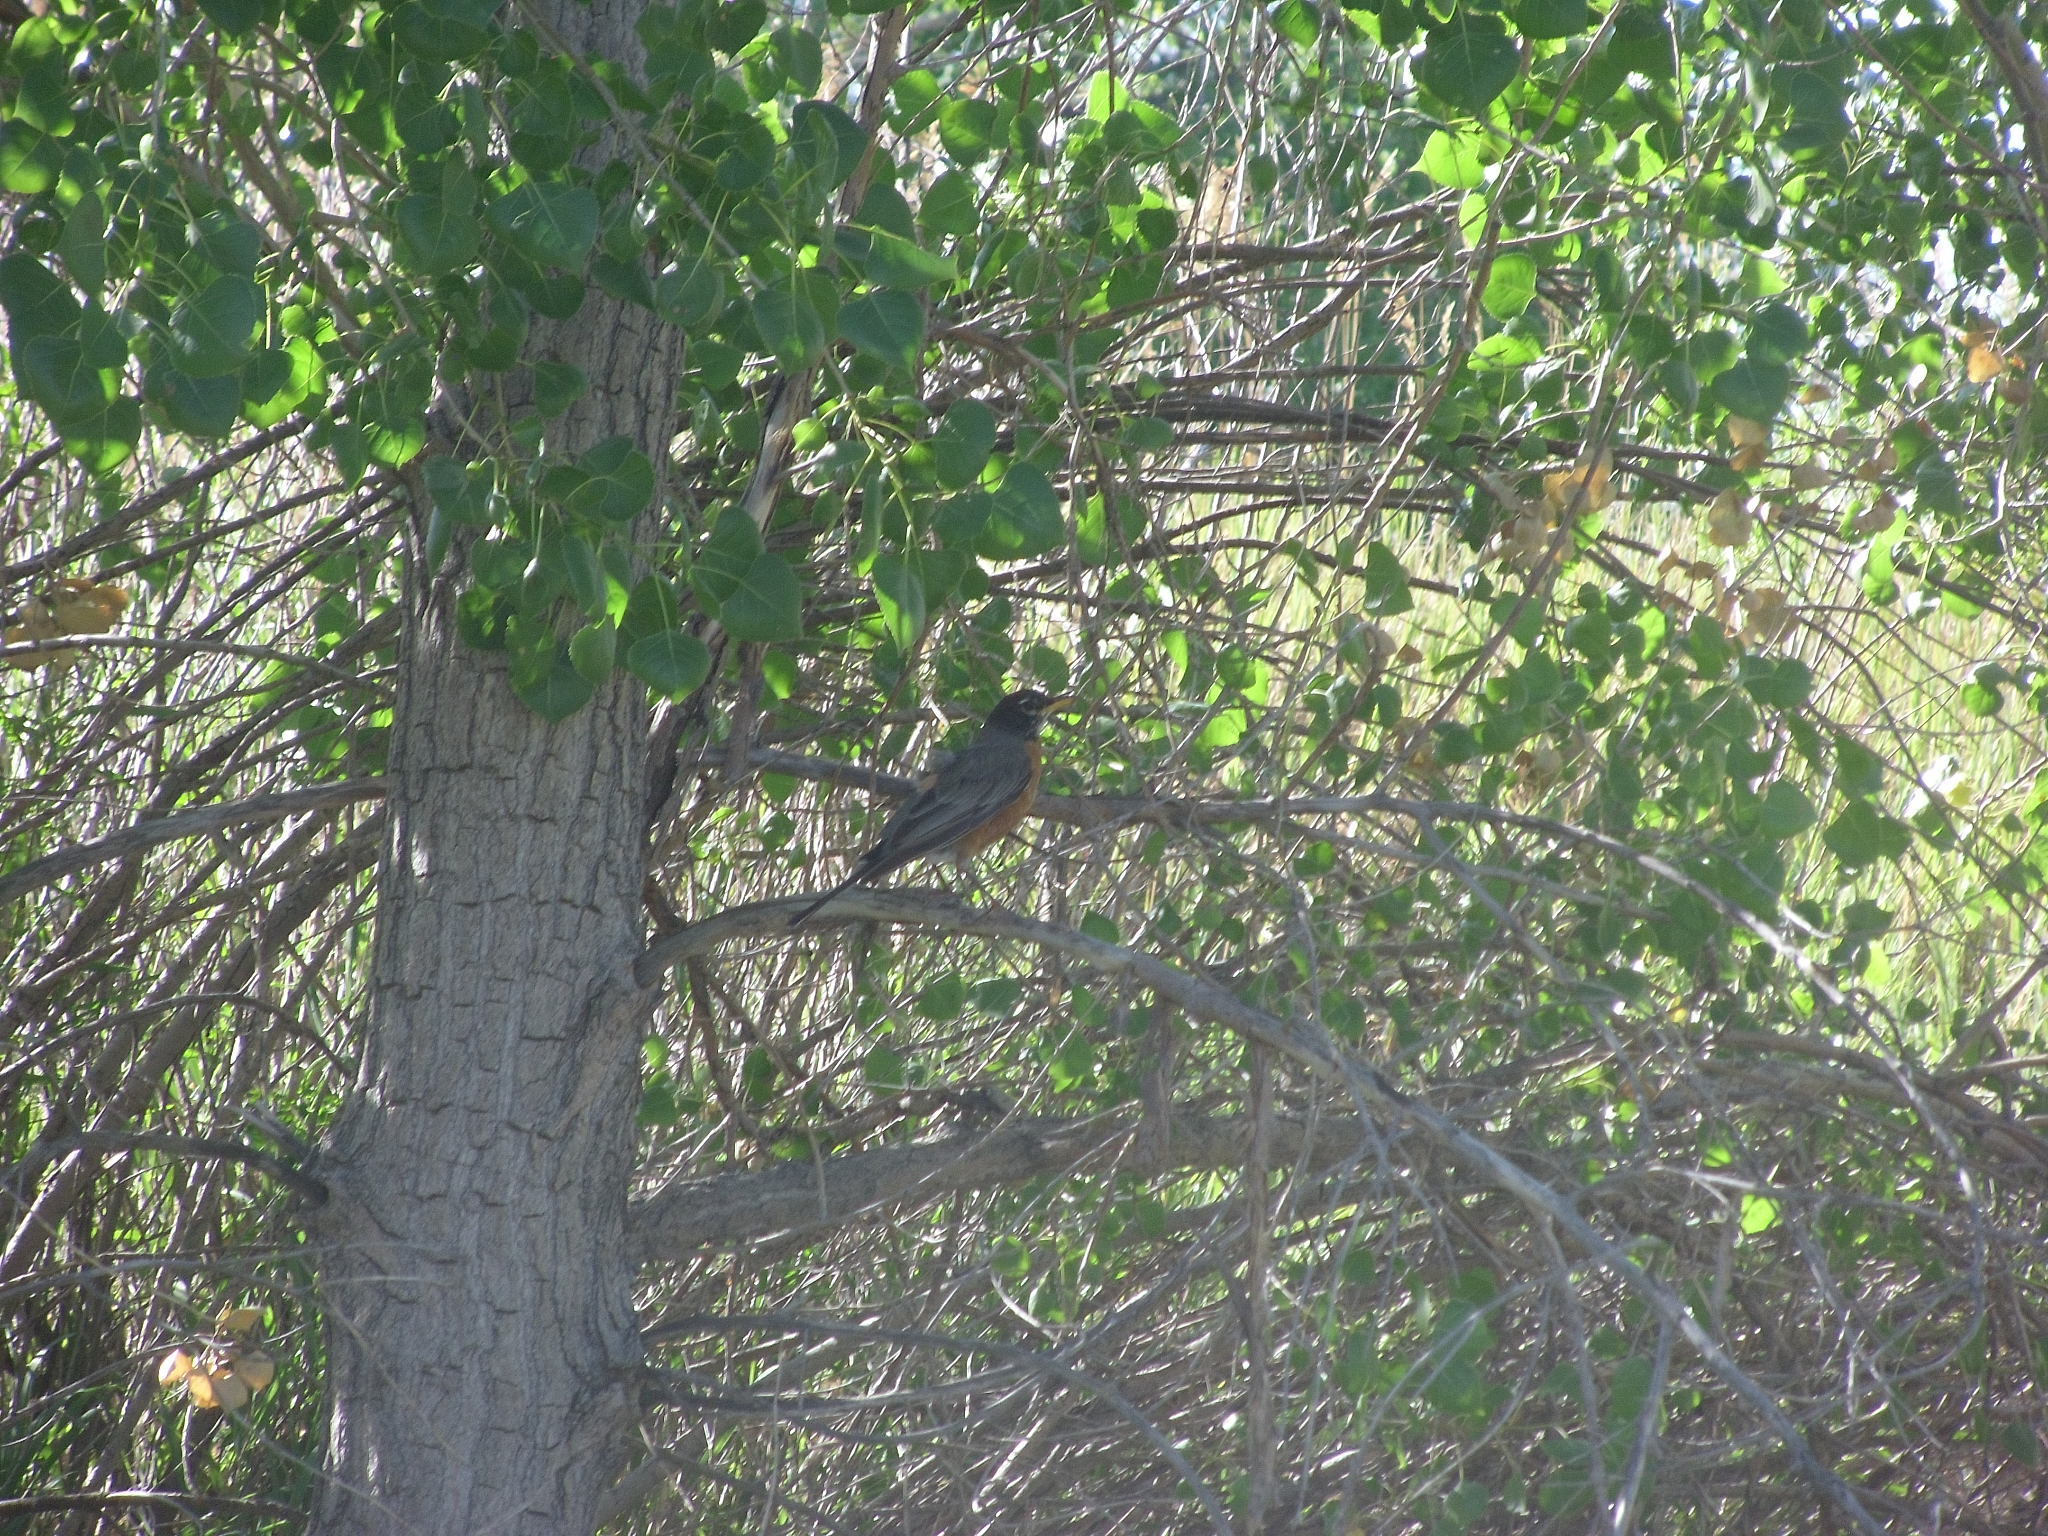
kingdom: Animalia
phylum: Chordata
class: Aves
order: Passeriformes
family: Turdidae
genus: Turdus
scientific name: Turdus migratorius
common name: American robin
